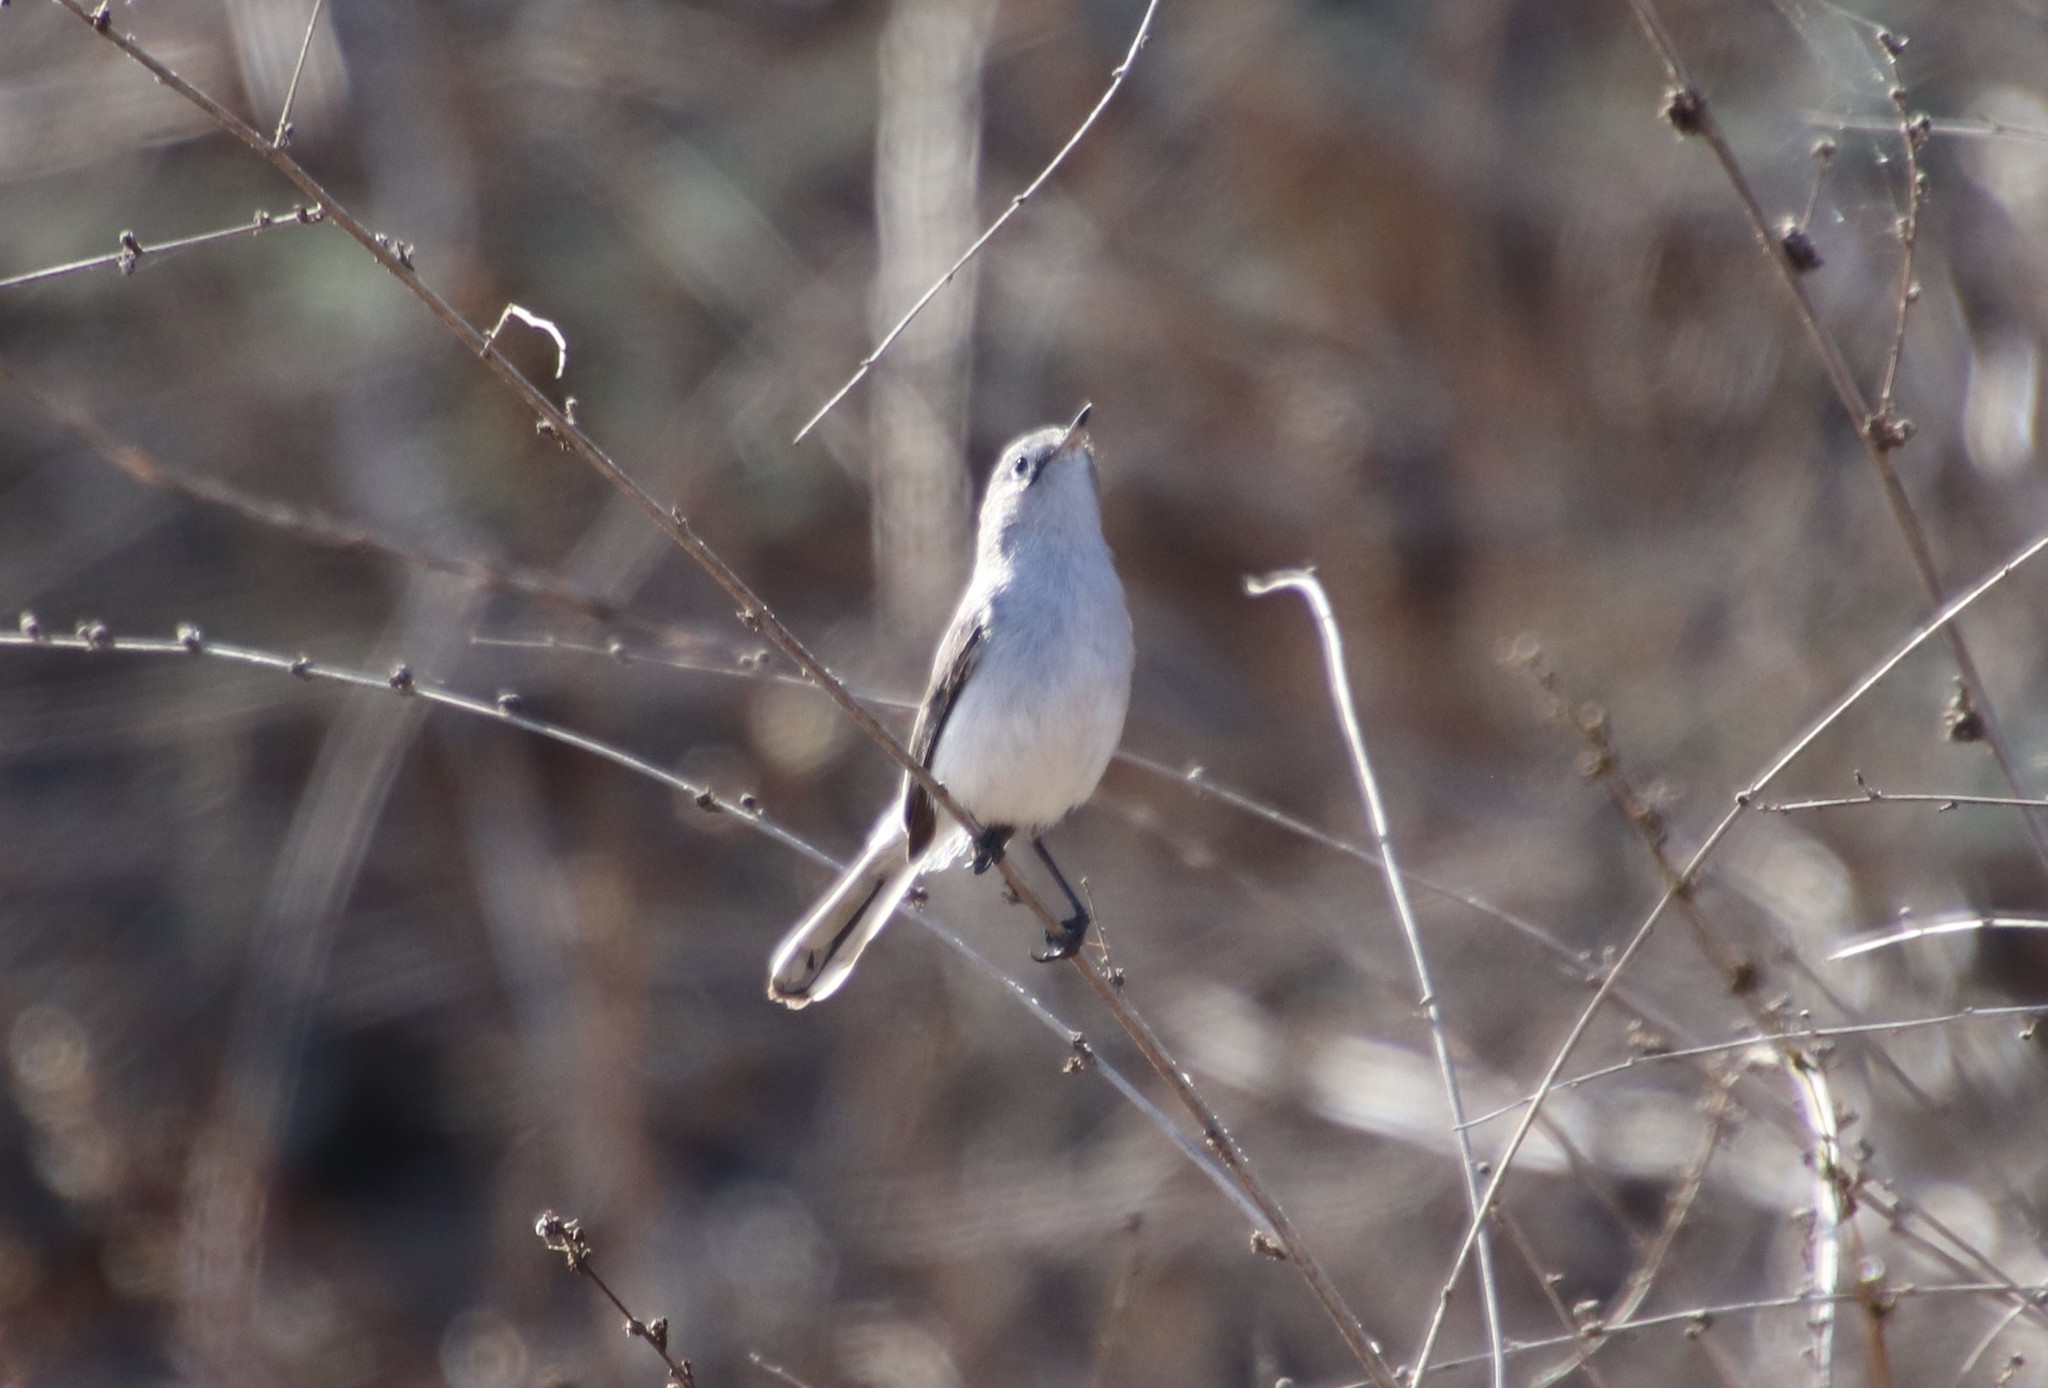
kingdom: Animalia
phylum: Chordata
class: Aves
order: Passeriformes
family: Polioptilidae
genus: Polioptila
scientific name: Polioptila caerulea
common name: Blue-gray gnatcatcher
